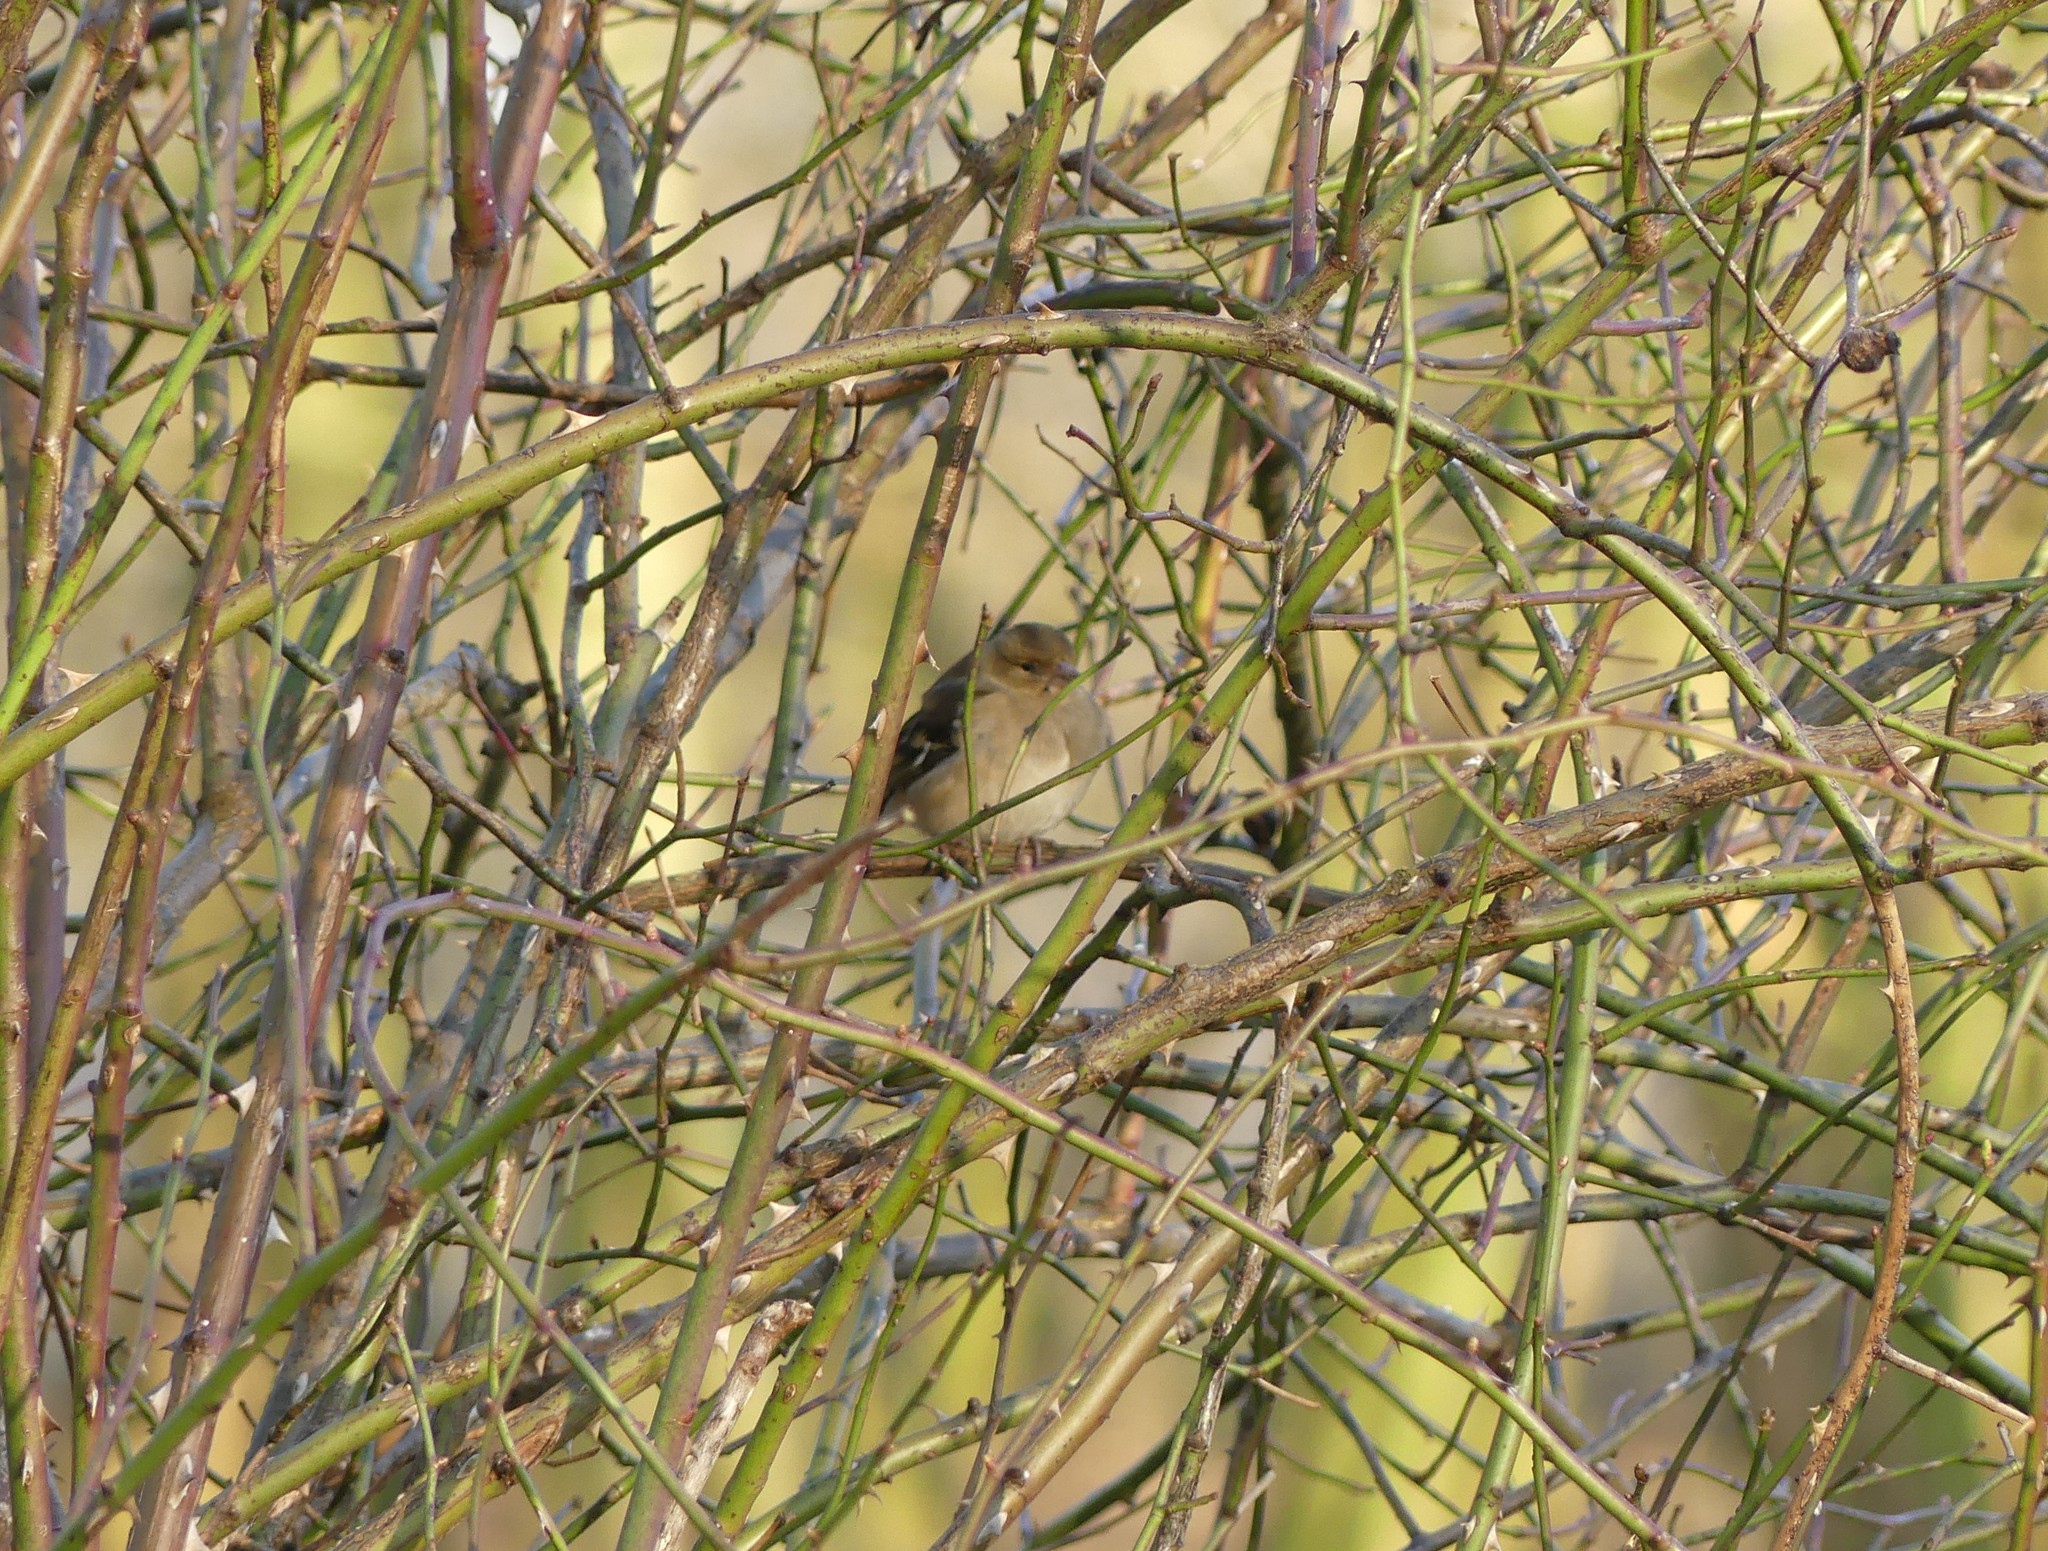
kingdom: Animalia
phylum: Chordata
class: Aves
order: Passeriformes
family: Fringillidae
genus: Fringilla
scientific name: Fringilla coelebs
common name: Common chaffinch
